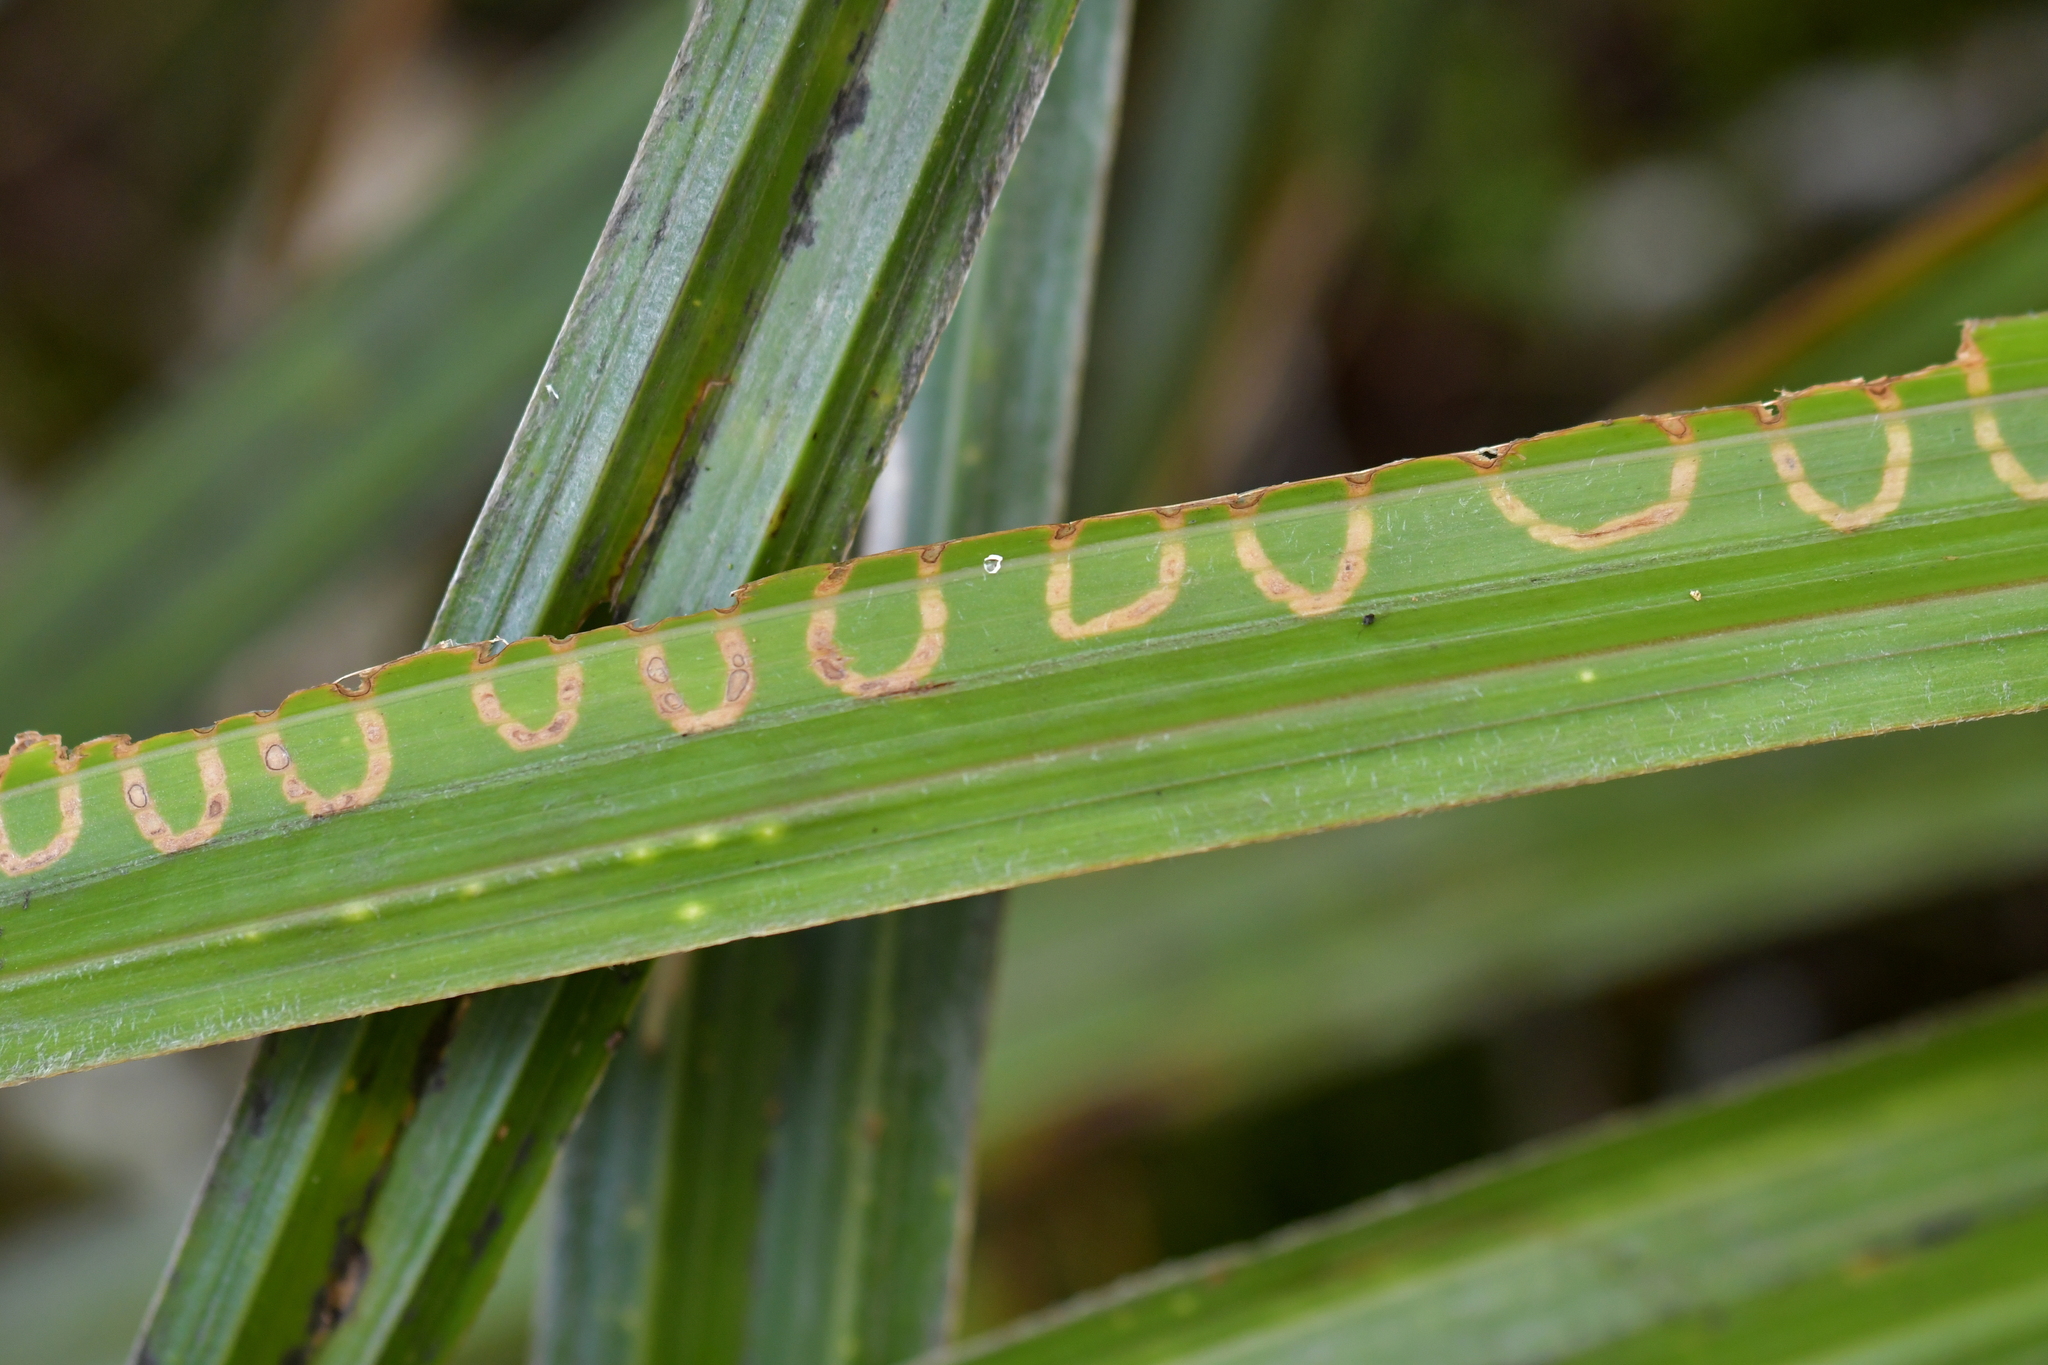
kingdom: Animalia
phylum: Arthropoda
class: Insecta
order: Lepidoptera
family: Plutellidae
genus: Charixena
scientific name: Charixena iridoxa
